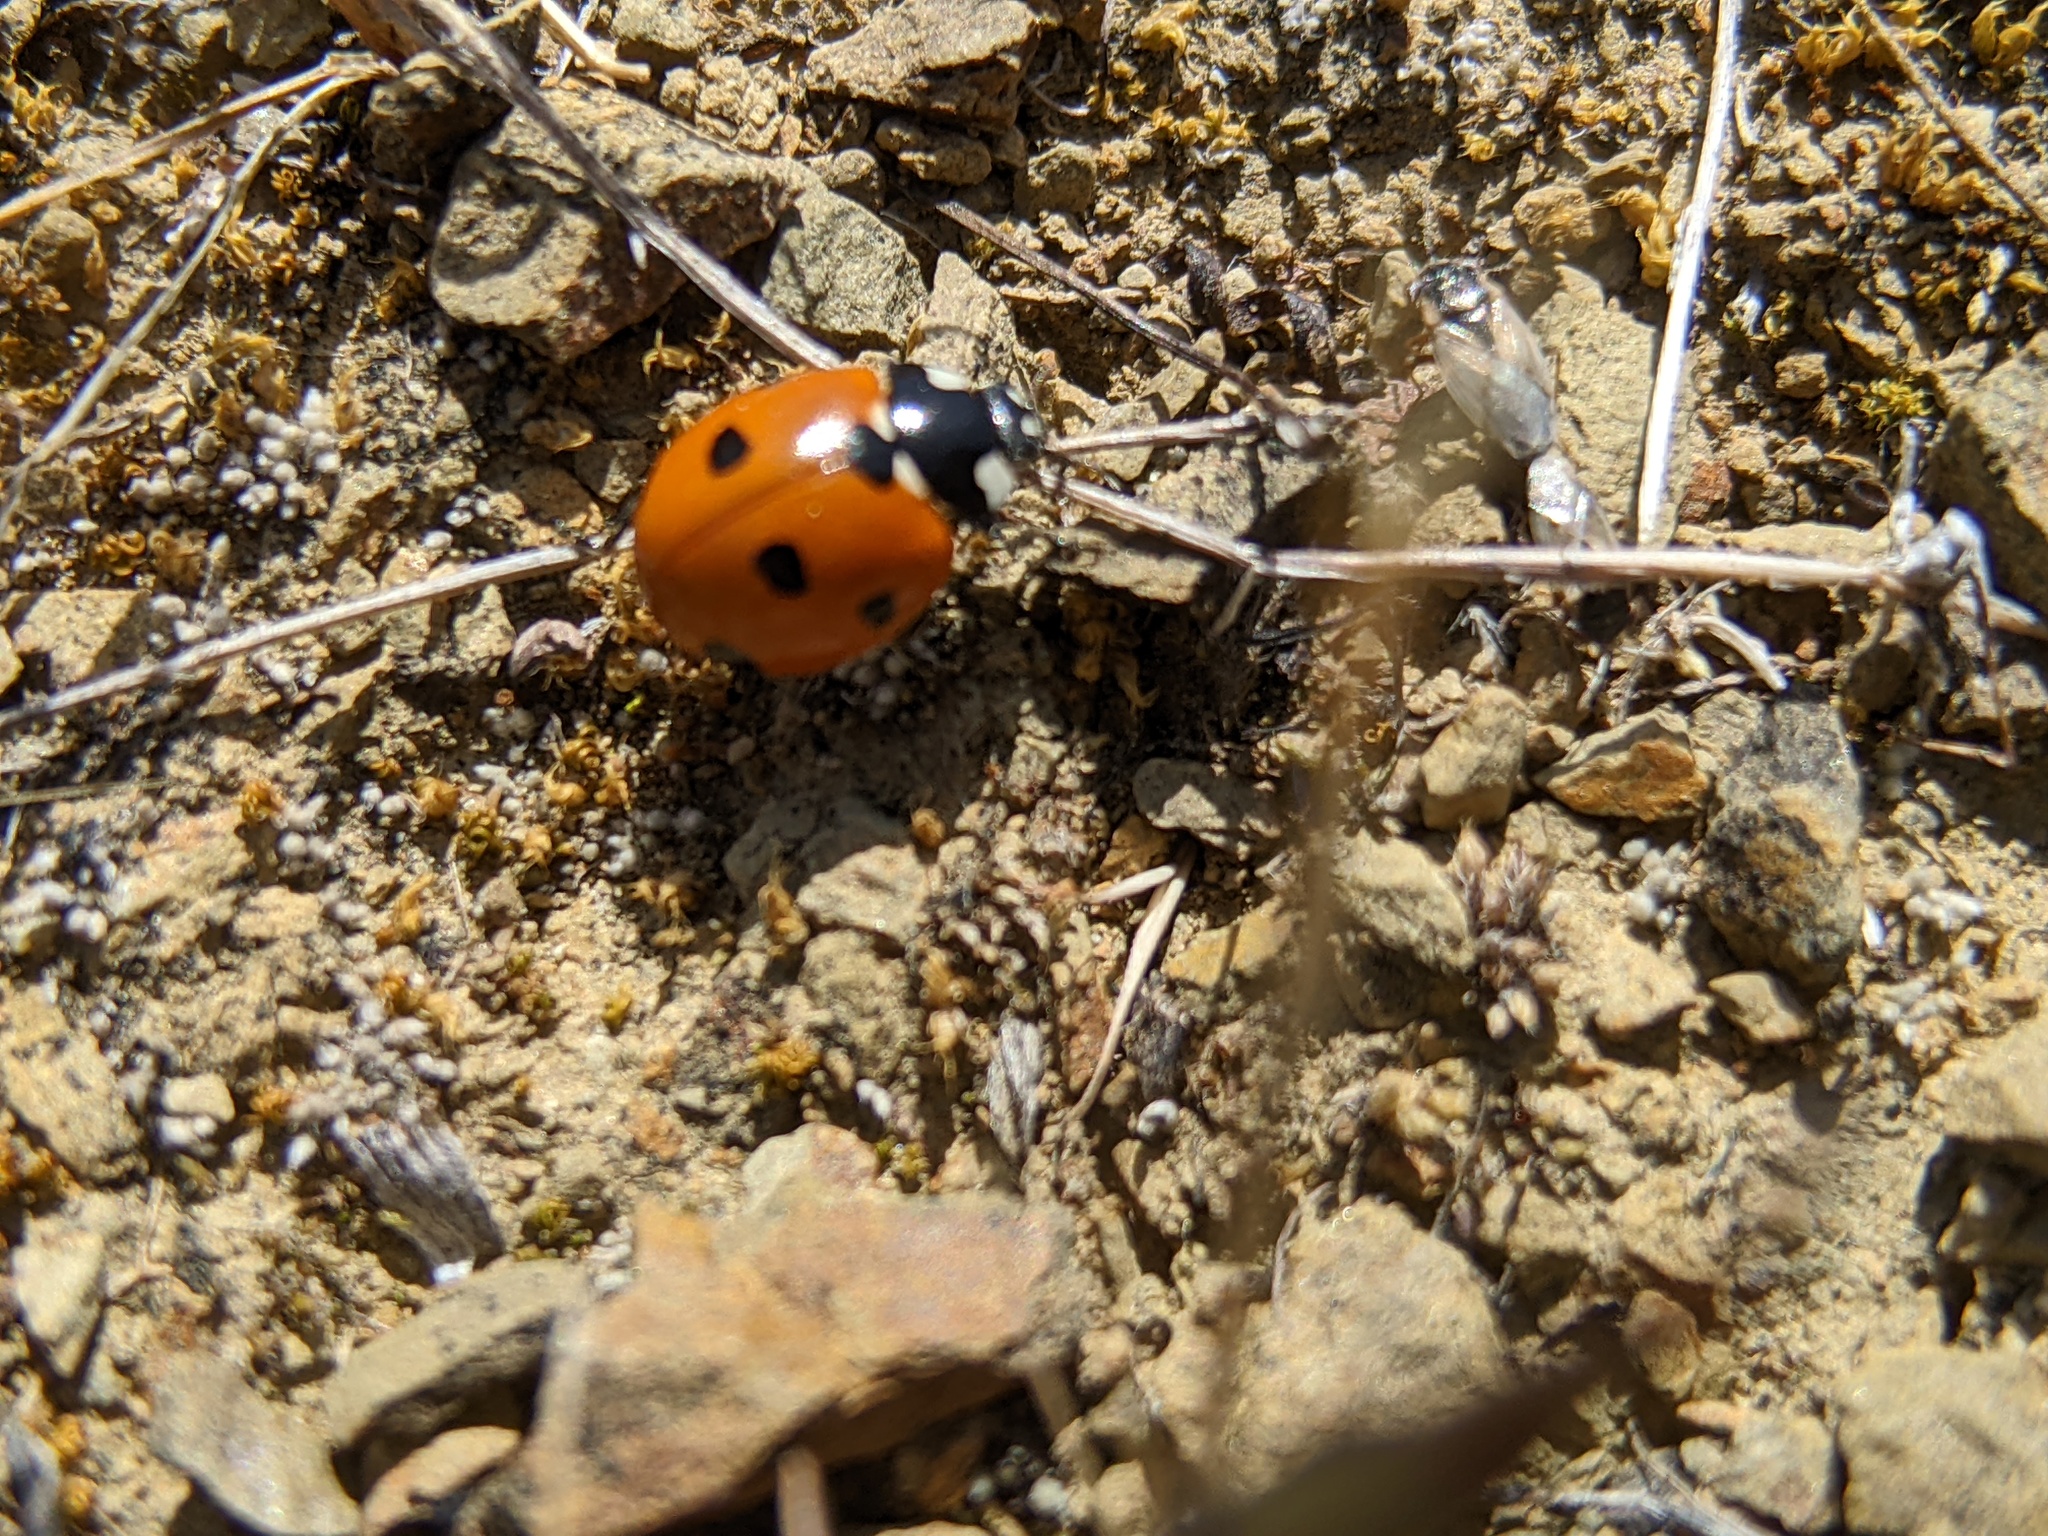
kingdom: Animalia
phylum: Arthropoda
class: Insecta
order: Coleoptera
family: Coccinellidae
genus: Coccinella
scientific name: Coccinella septempunctata
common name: Sevenspotted lady beetle
